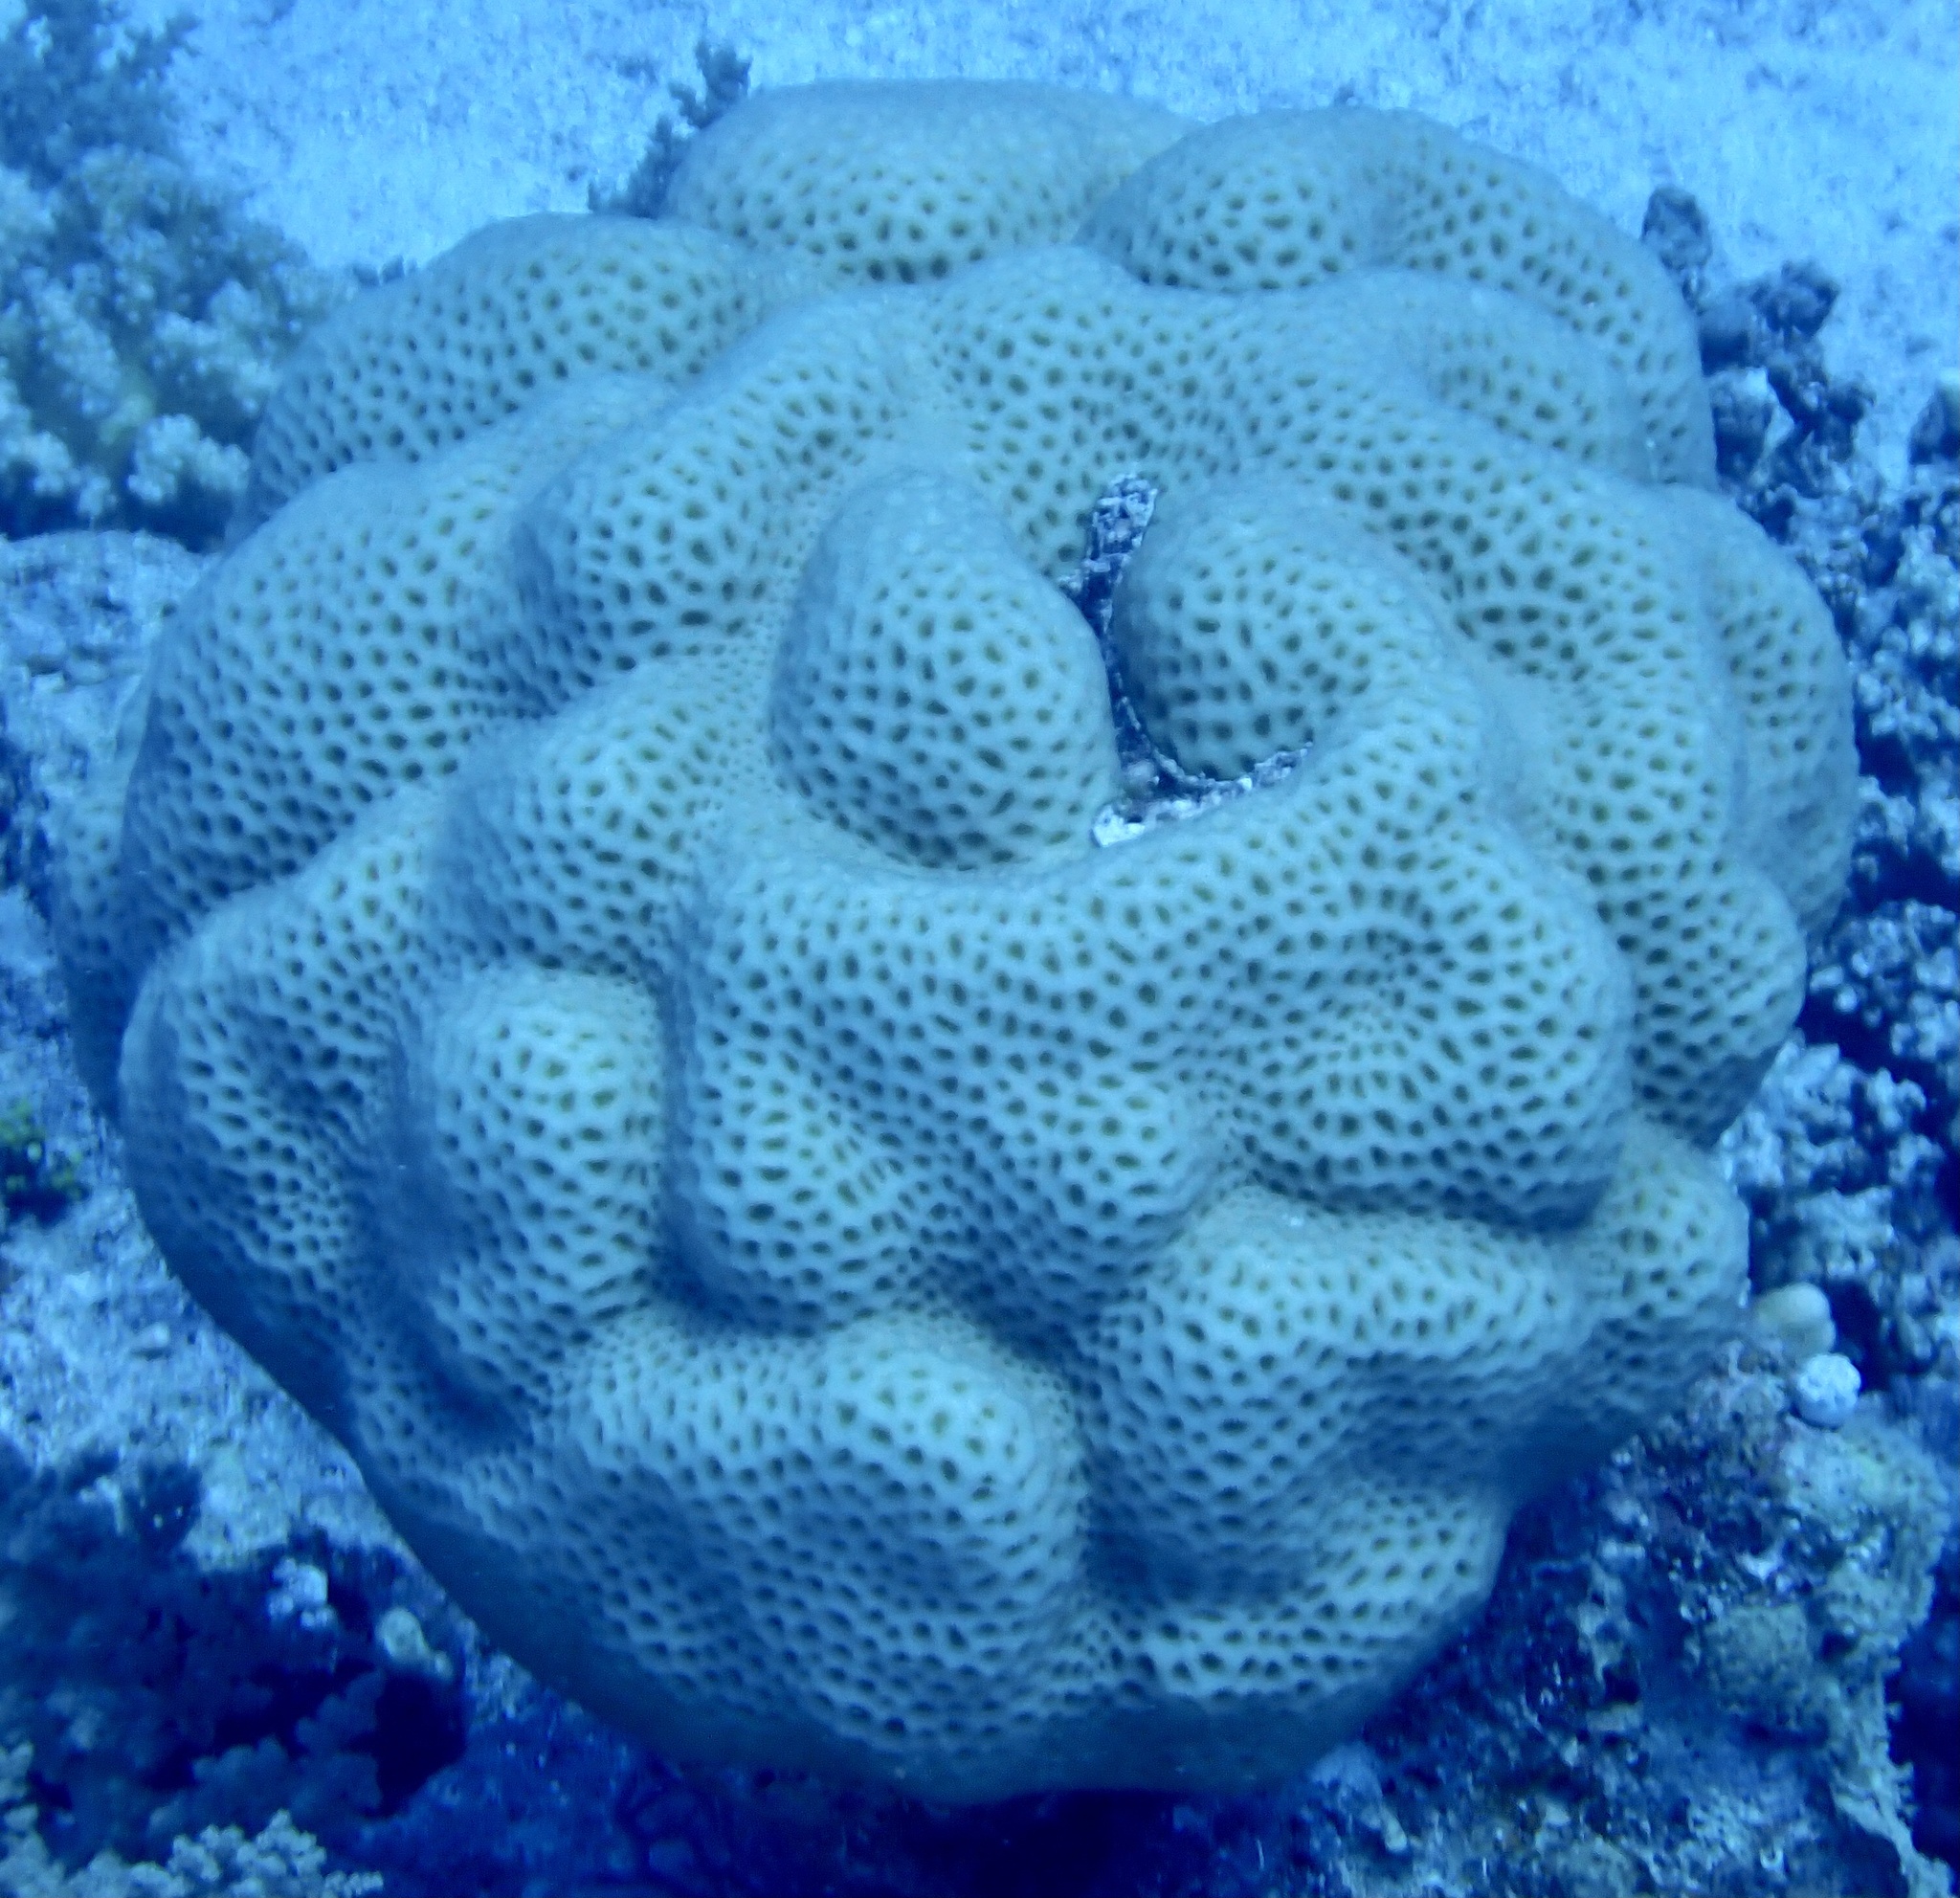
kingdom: Animalia
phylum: Cnidaria
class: Anthozoa
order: Scleractinia
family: Merulinidae
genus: Goniastrea
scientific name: Goniastrea pectinata
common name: Lesser star coral
